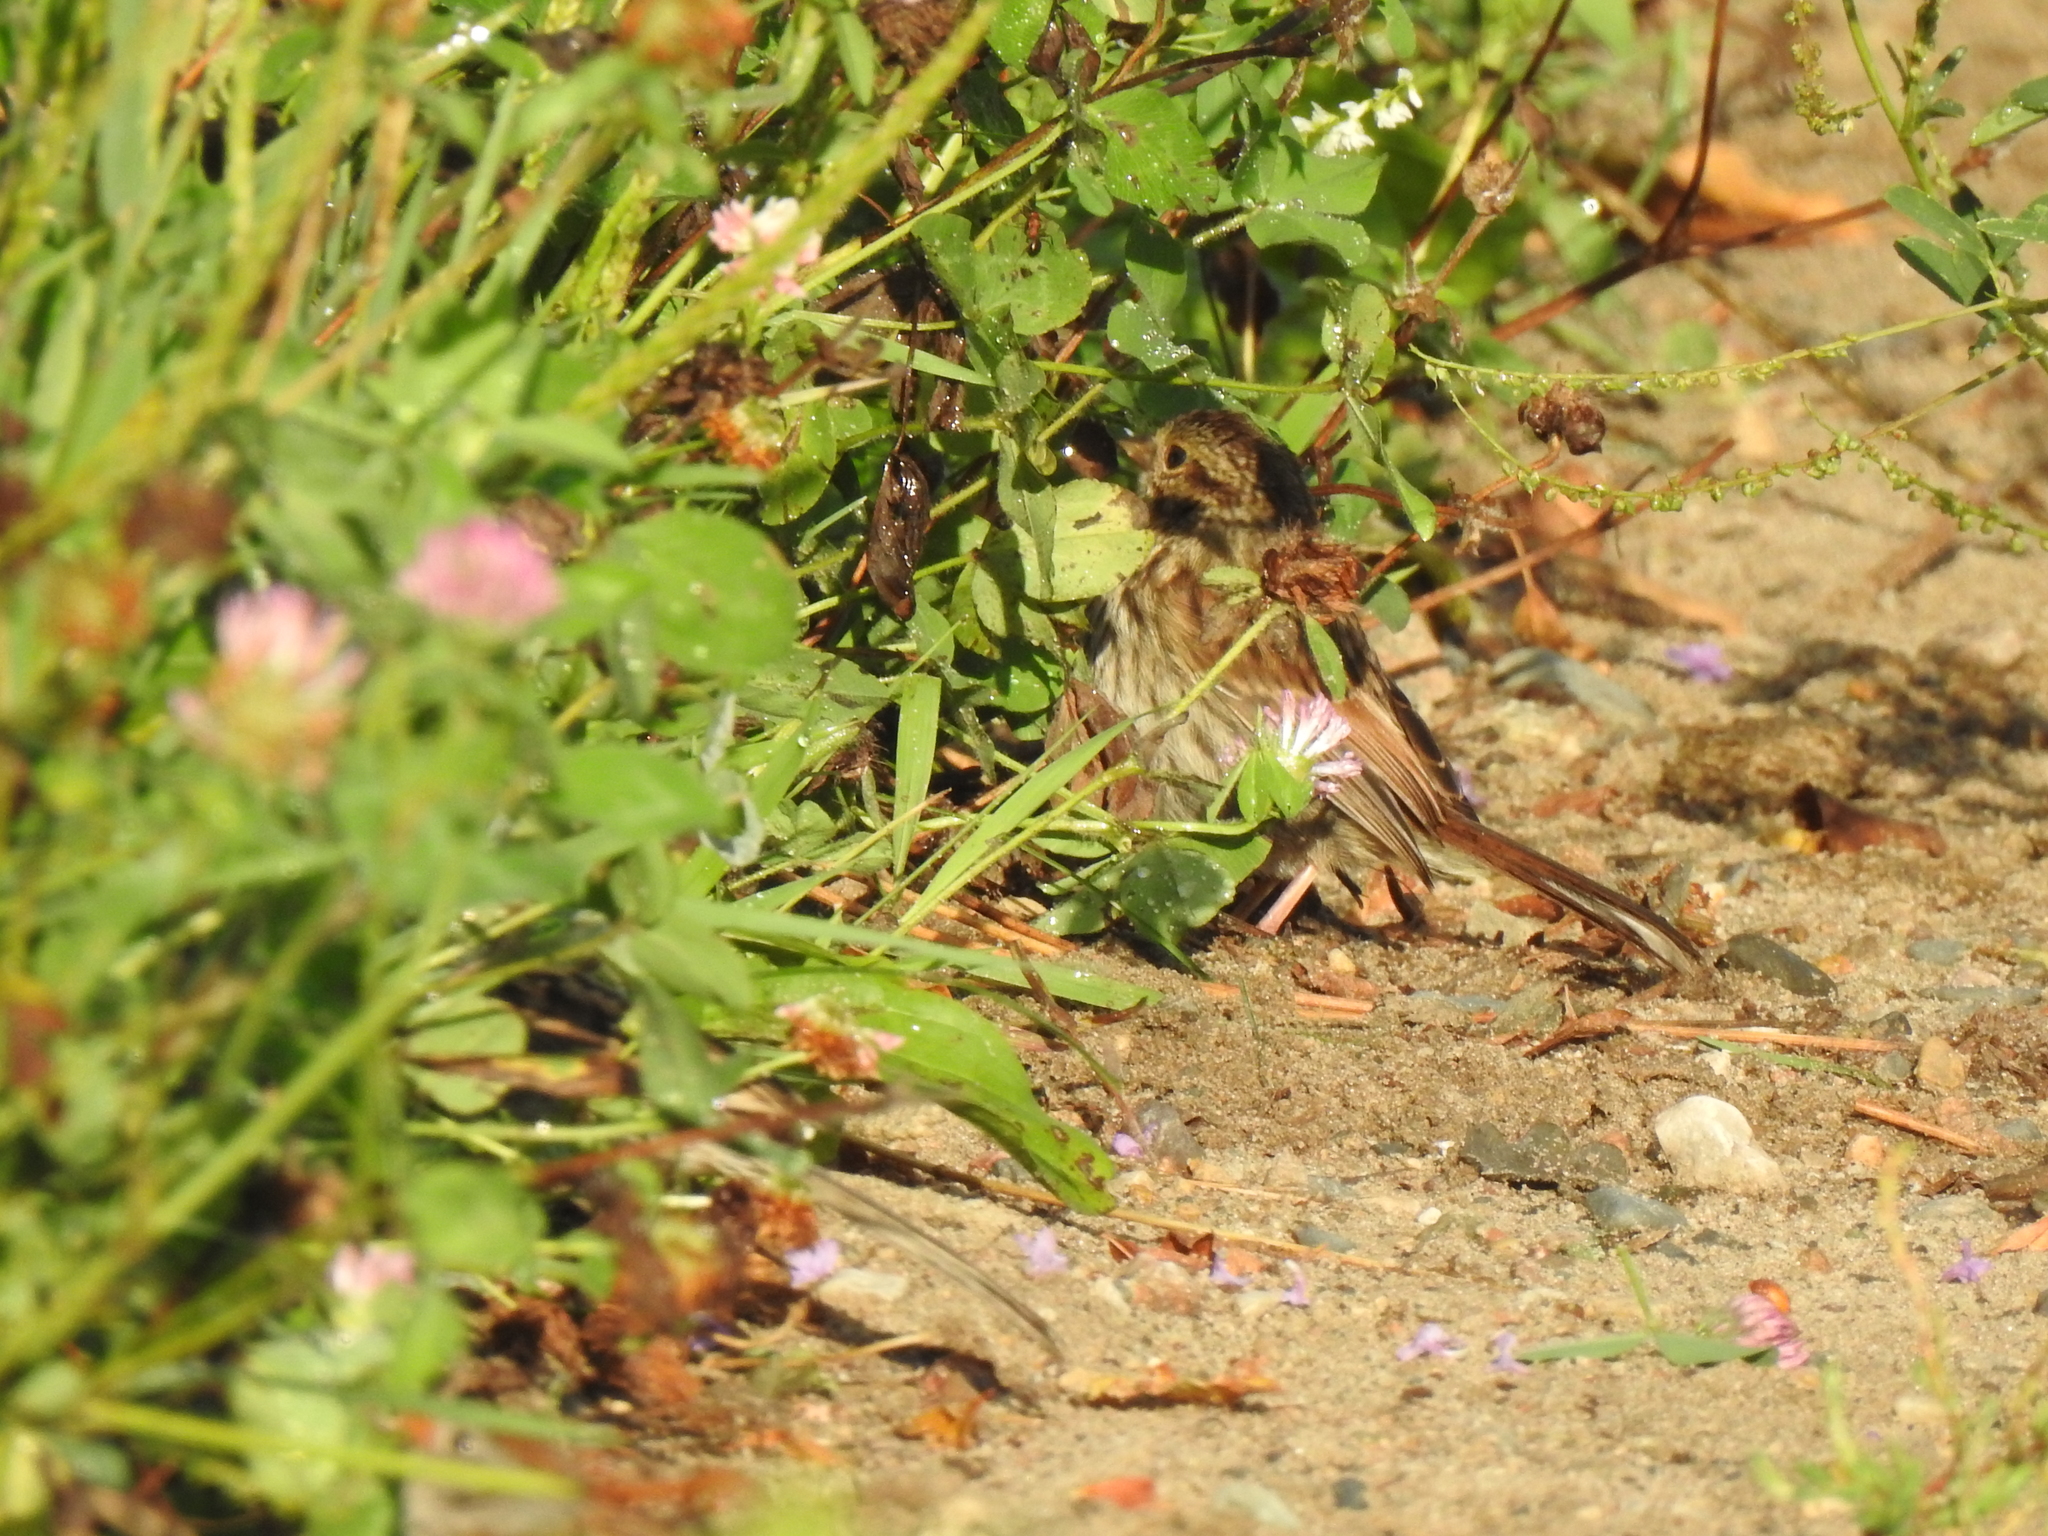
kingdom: Animalia
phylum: Chordata
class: Aves
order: Passeriformes
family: Passerellidae
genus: Melospiza
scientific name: Melospiza melodia
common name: Song sparrow
